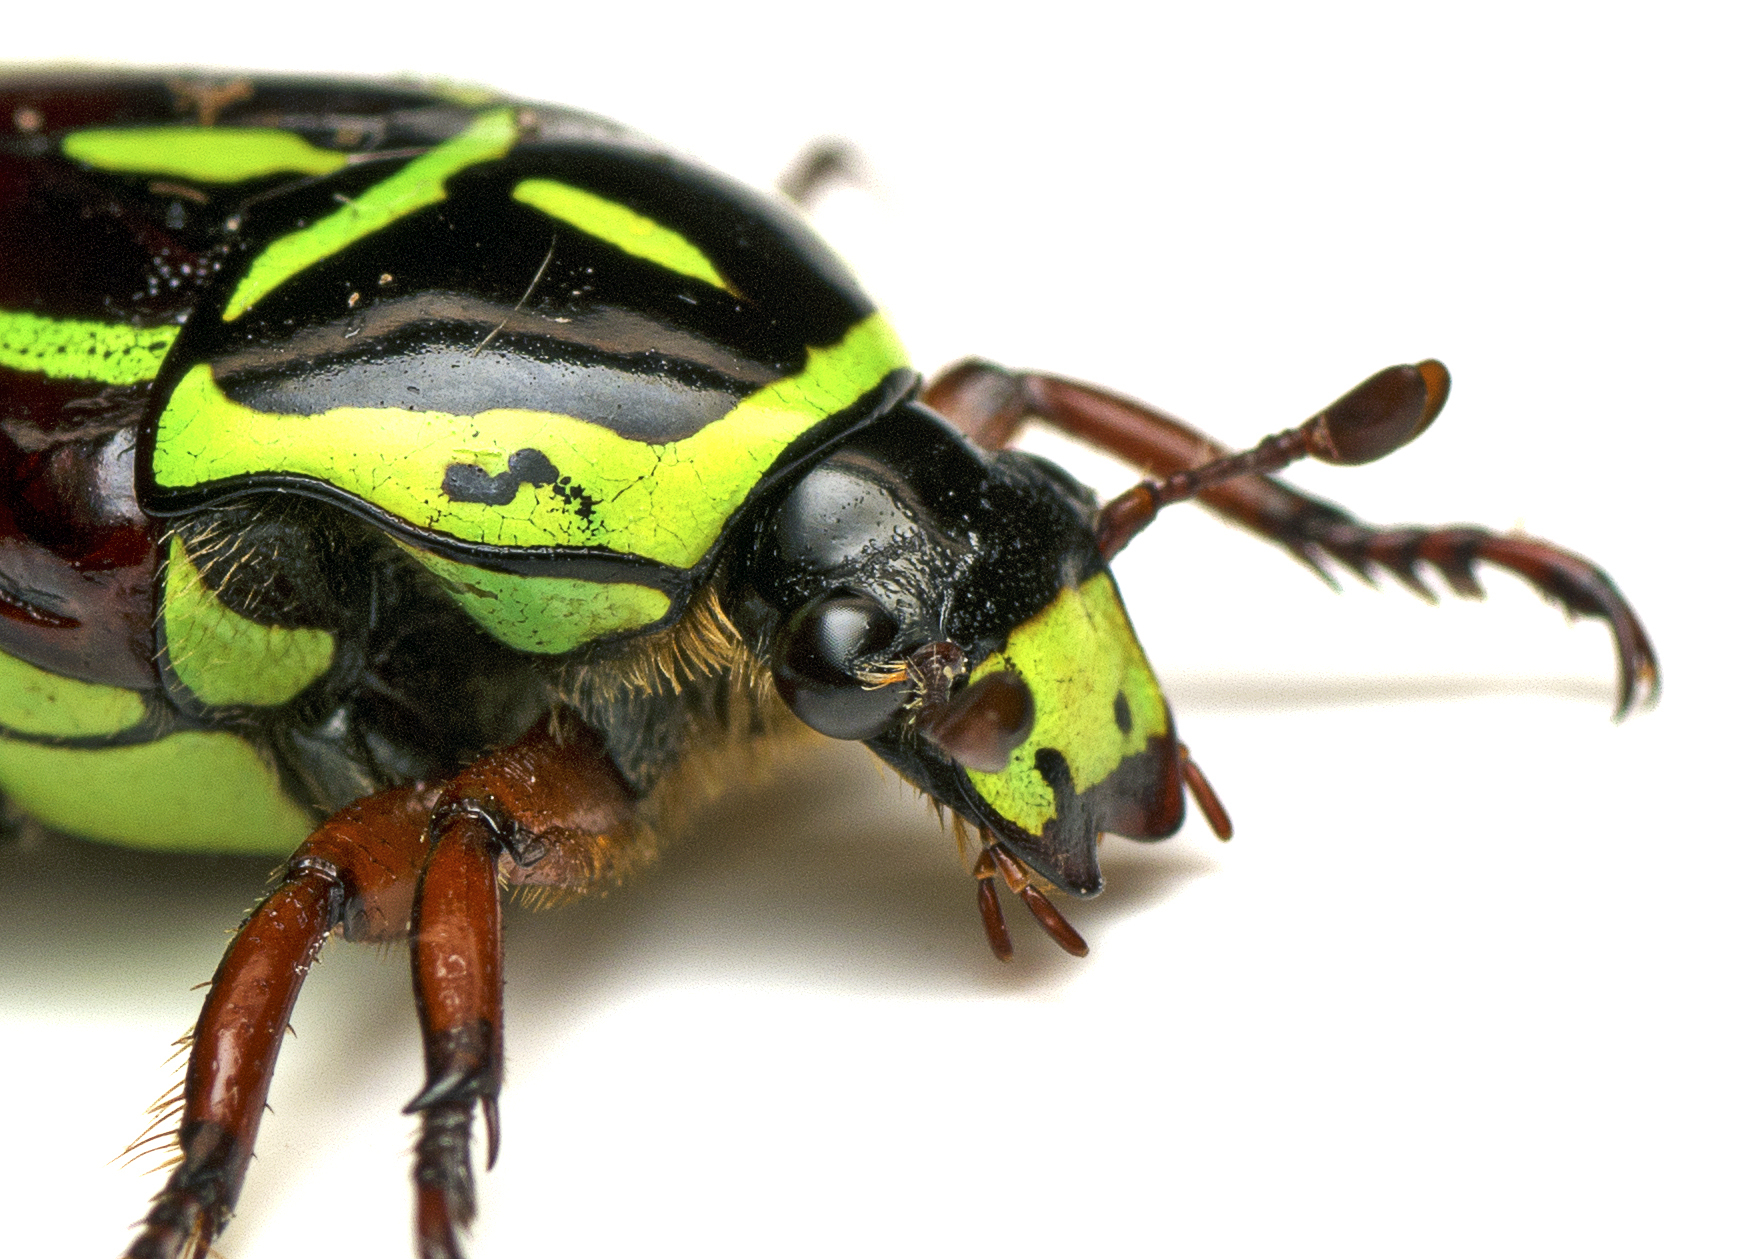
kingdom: Animalia
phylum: Arthropoda
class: Insecta
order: Coleoptera
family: Scarabaeidae
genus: Eupoecila
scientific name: Eupoecila australasiae
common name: Fiddler beetle
